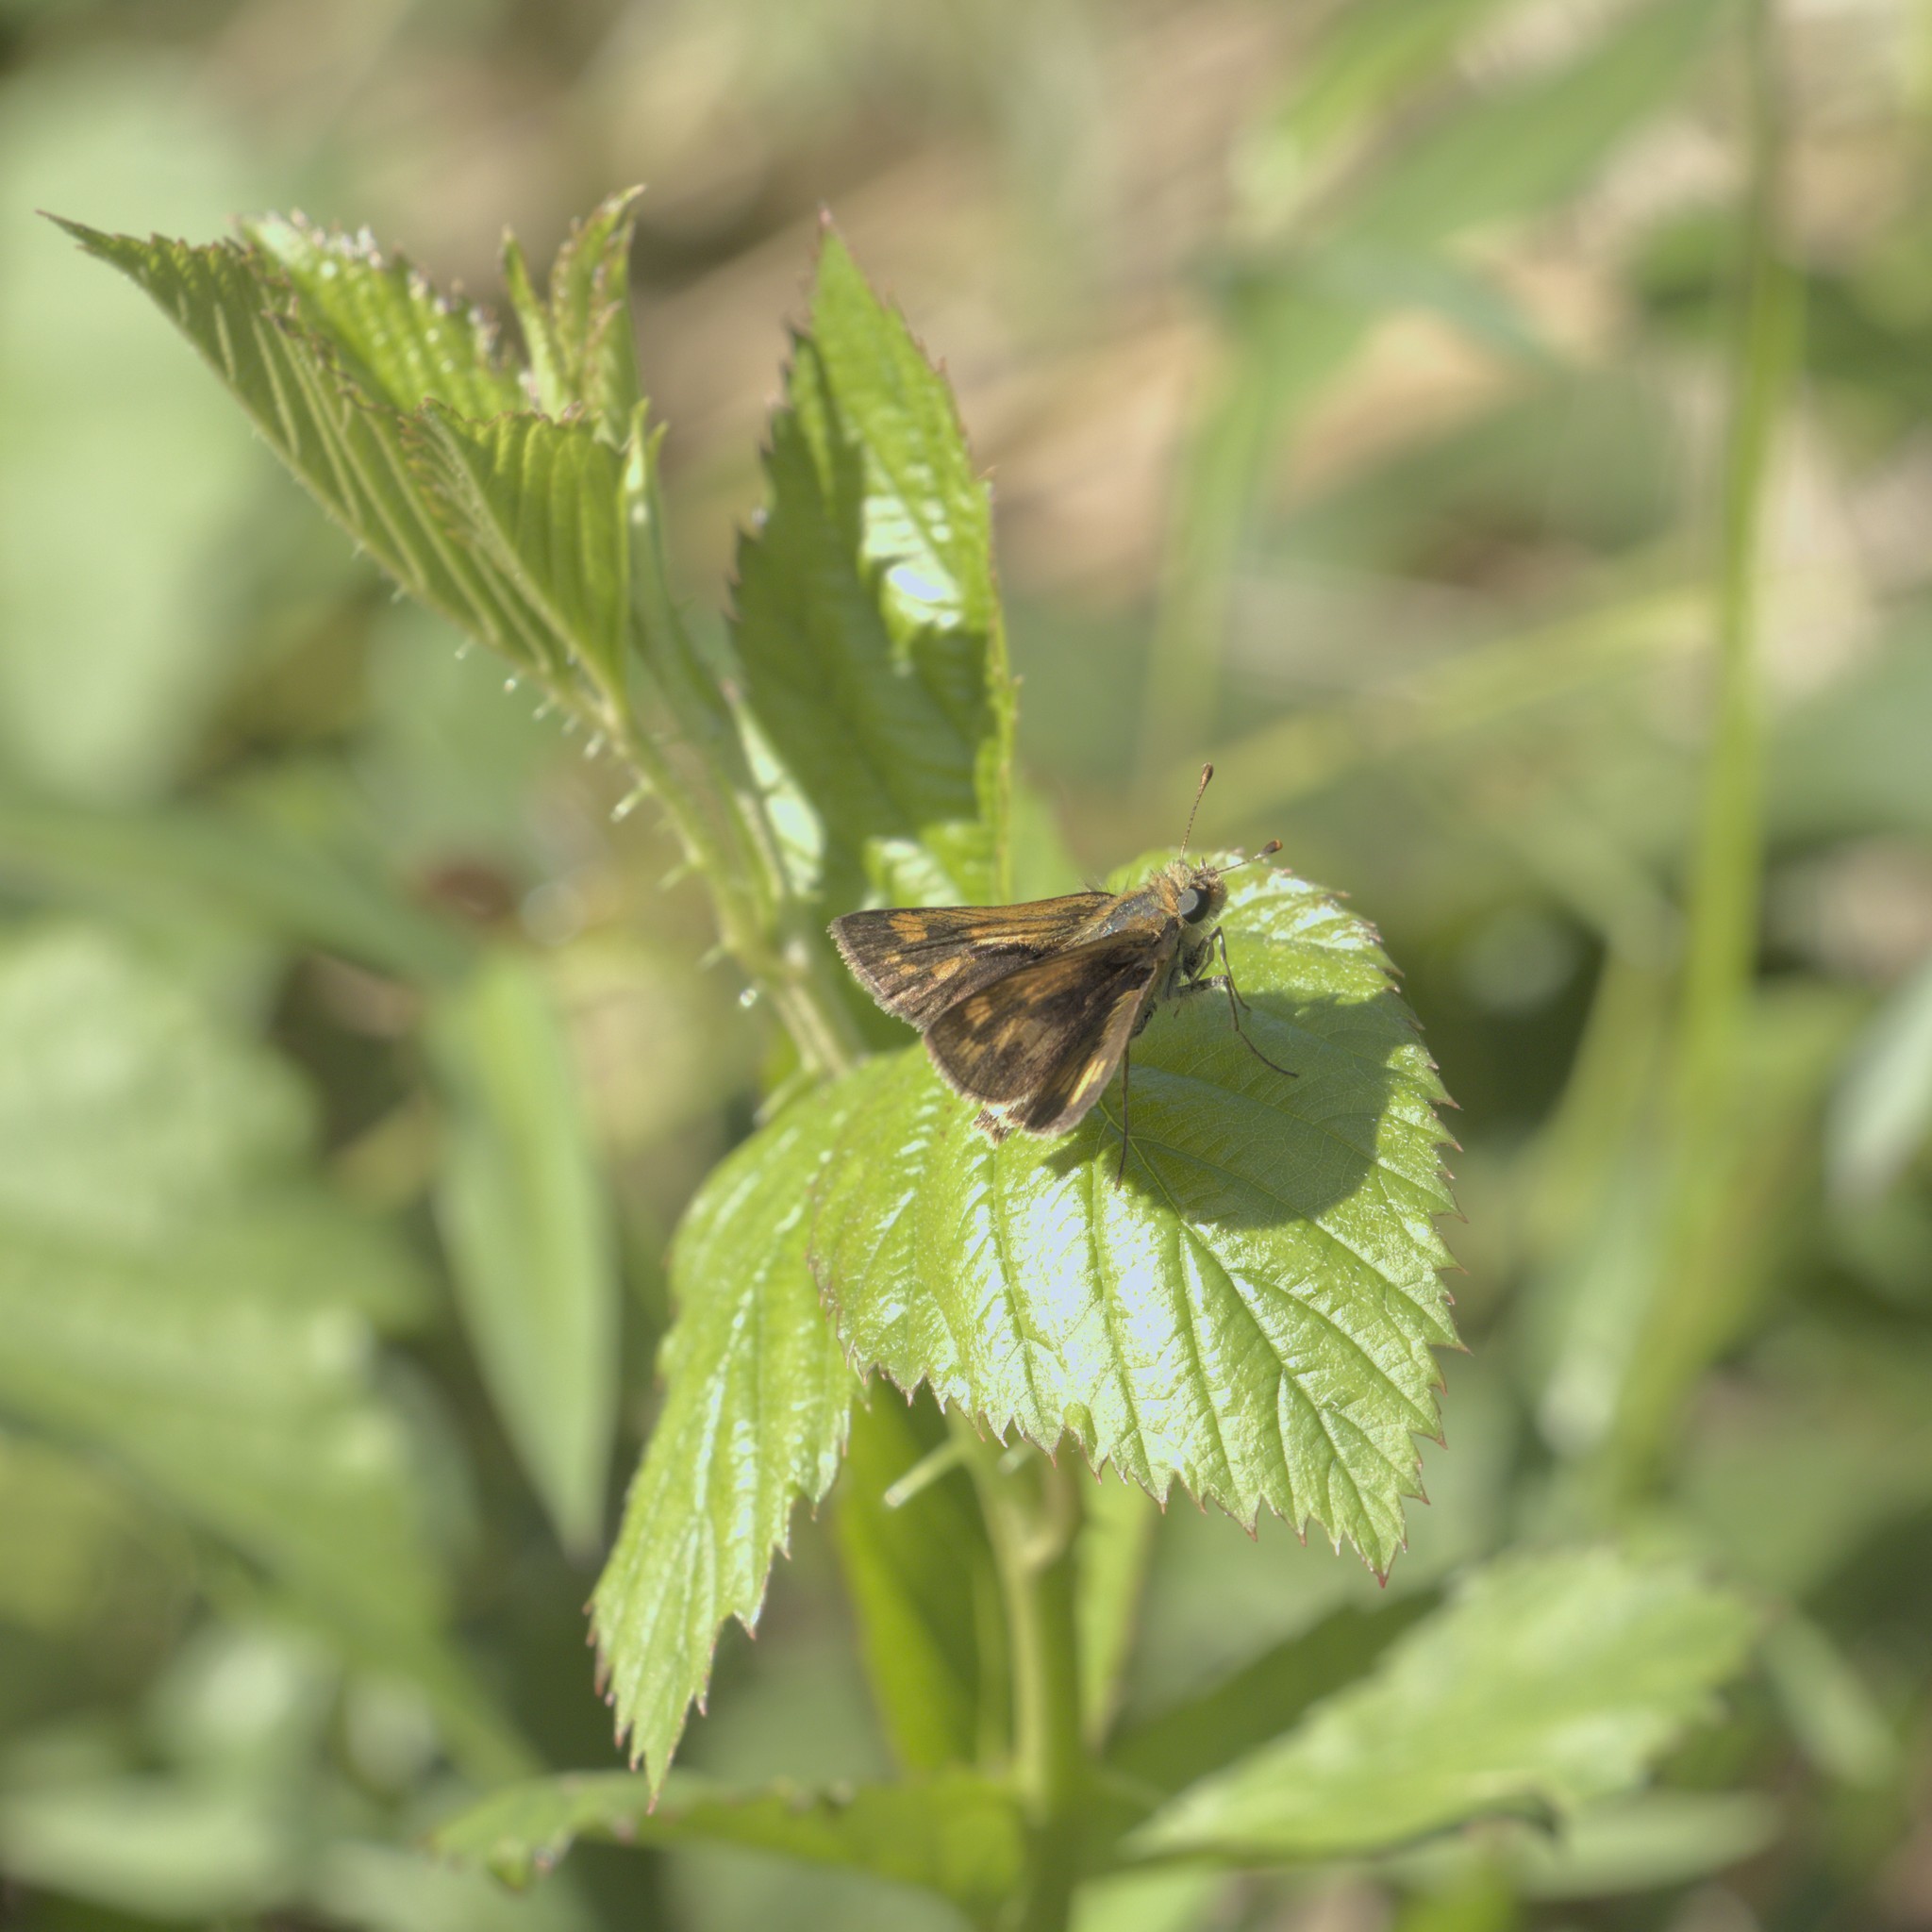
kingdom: Animalia
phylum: Arthropoda
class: Insecta
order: Lepidoptera
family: Hesperiidae
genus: Polites
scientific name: Polites coras
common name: Peck's skipper
